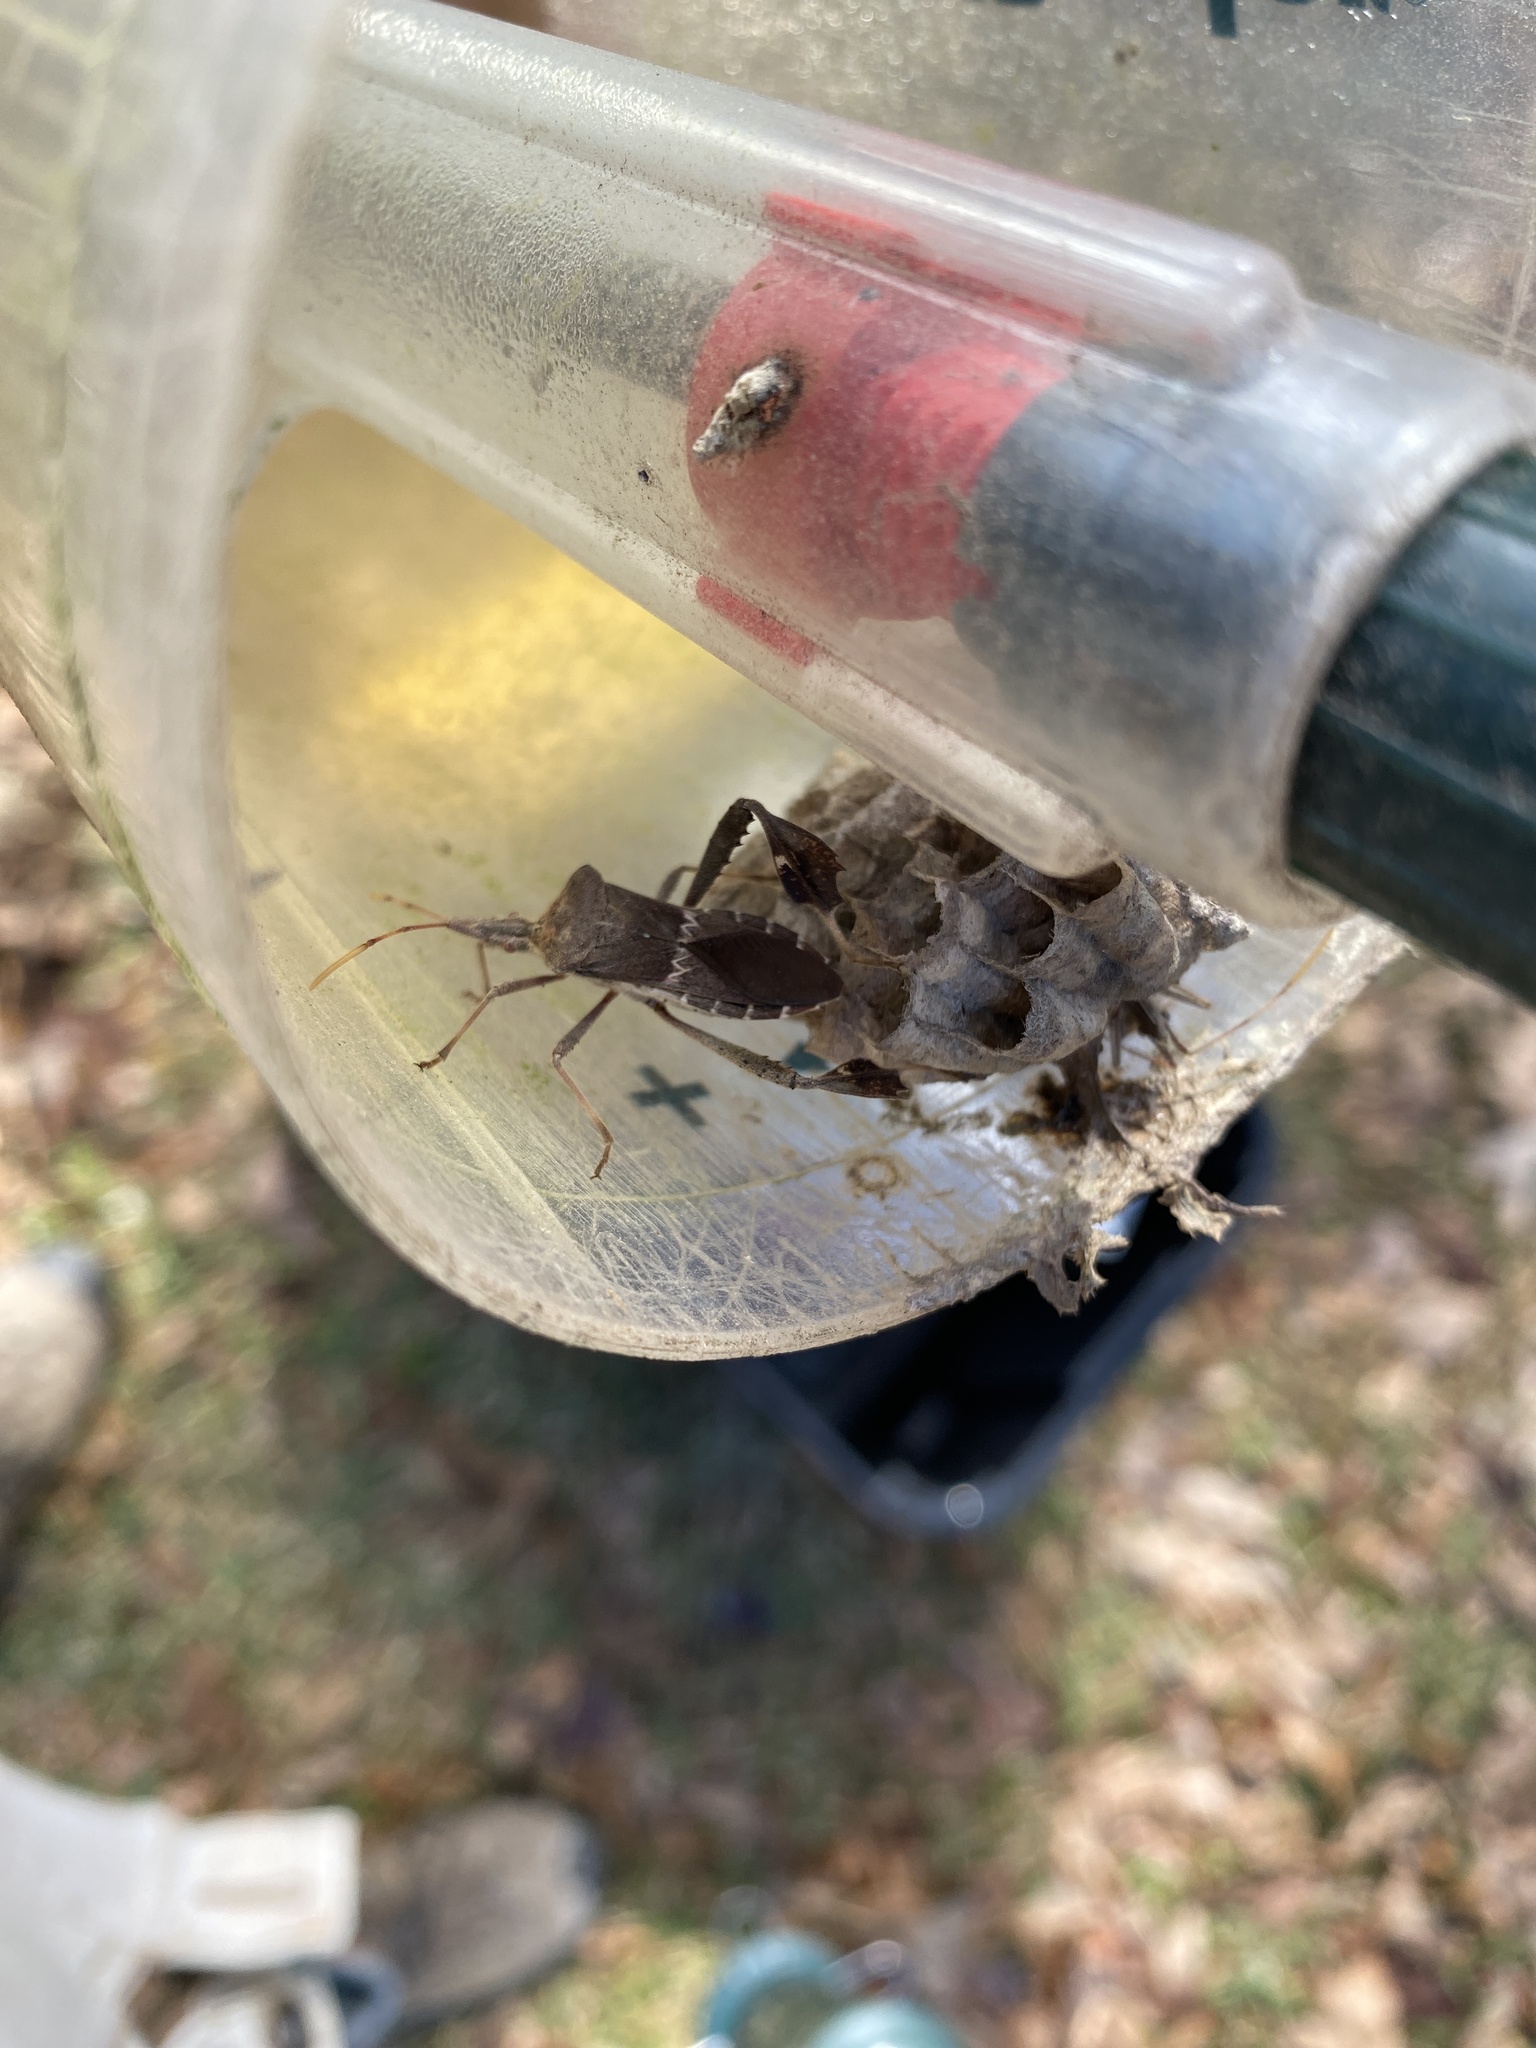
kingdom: Animalia
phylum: Arthropoda
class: Insecta
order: Hemiptera
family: Coreidae
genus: Leptoglossus
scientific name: Leptoglossus zonatus
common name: Large-legged bug
